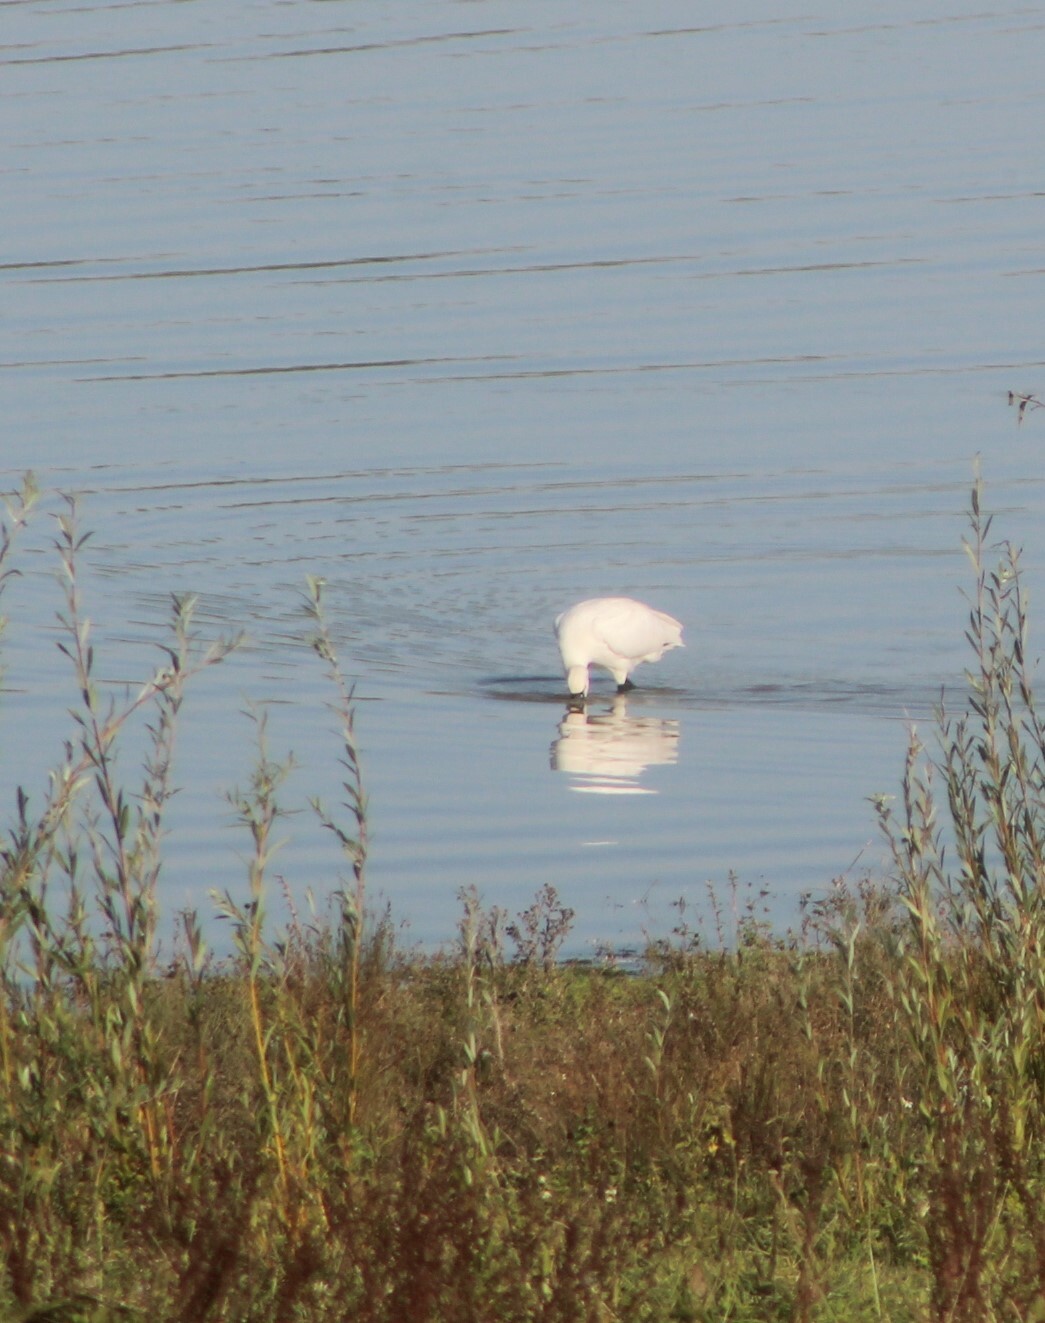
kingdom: Animalia
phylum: Chordata
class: Aves
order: Pelecaniformes
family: Threskiornithidae
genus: Platalea
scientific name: Platalea leucorodia
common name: Eurasian spoonbill
